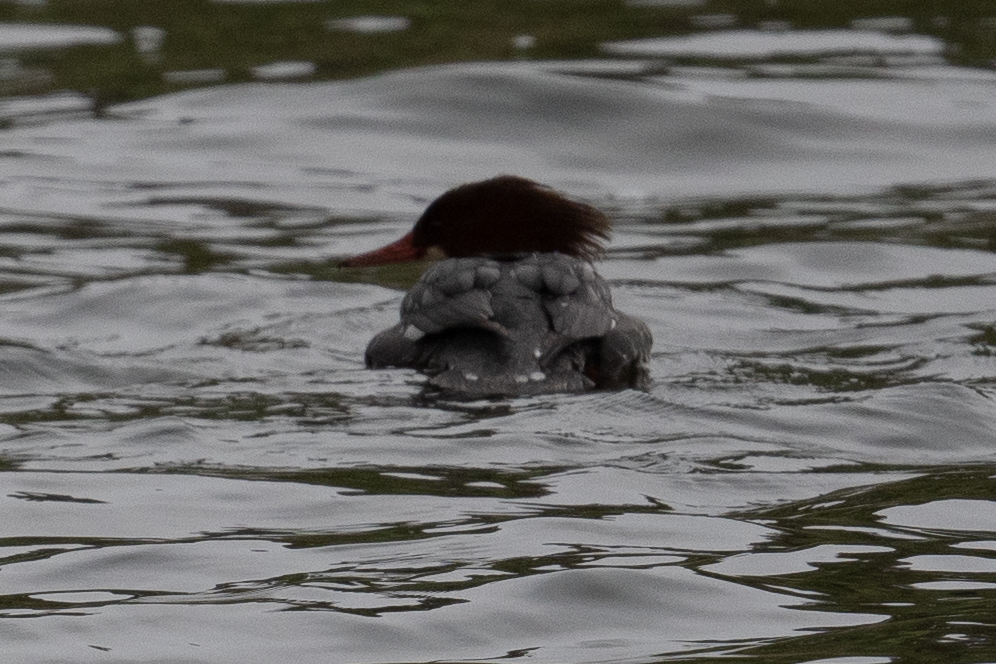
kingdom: Animalia
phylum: Chordata
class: Aves
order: Anseriformes
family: Anatidae
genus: Mergus
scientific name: Mergus merganser
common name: Common merganser
